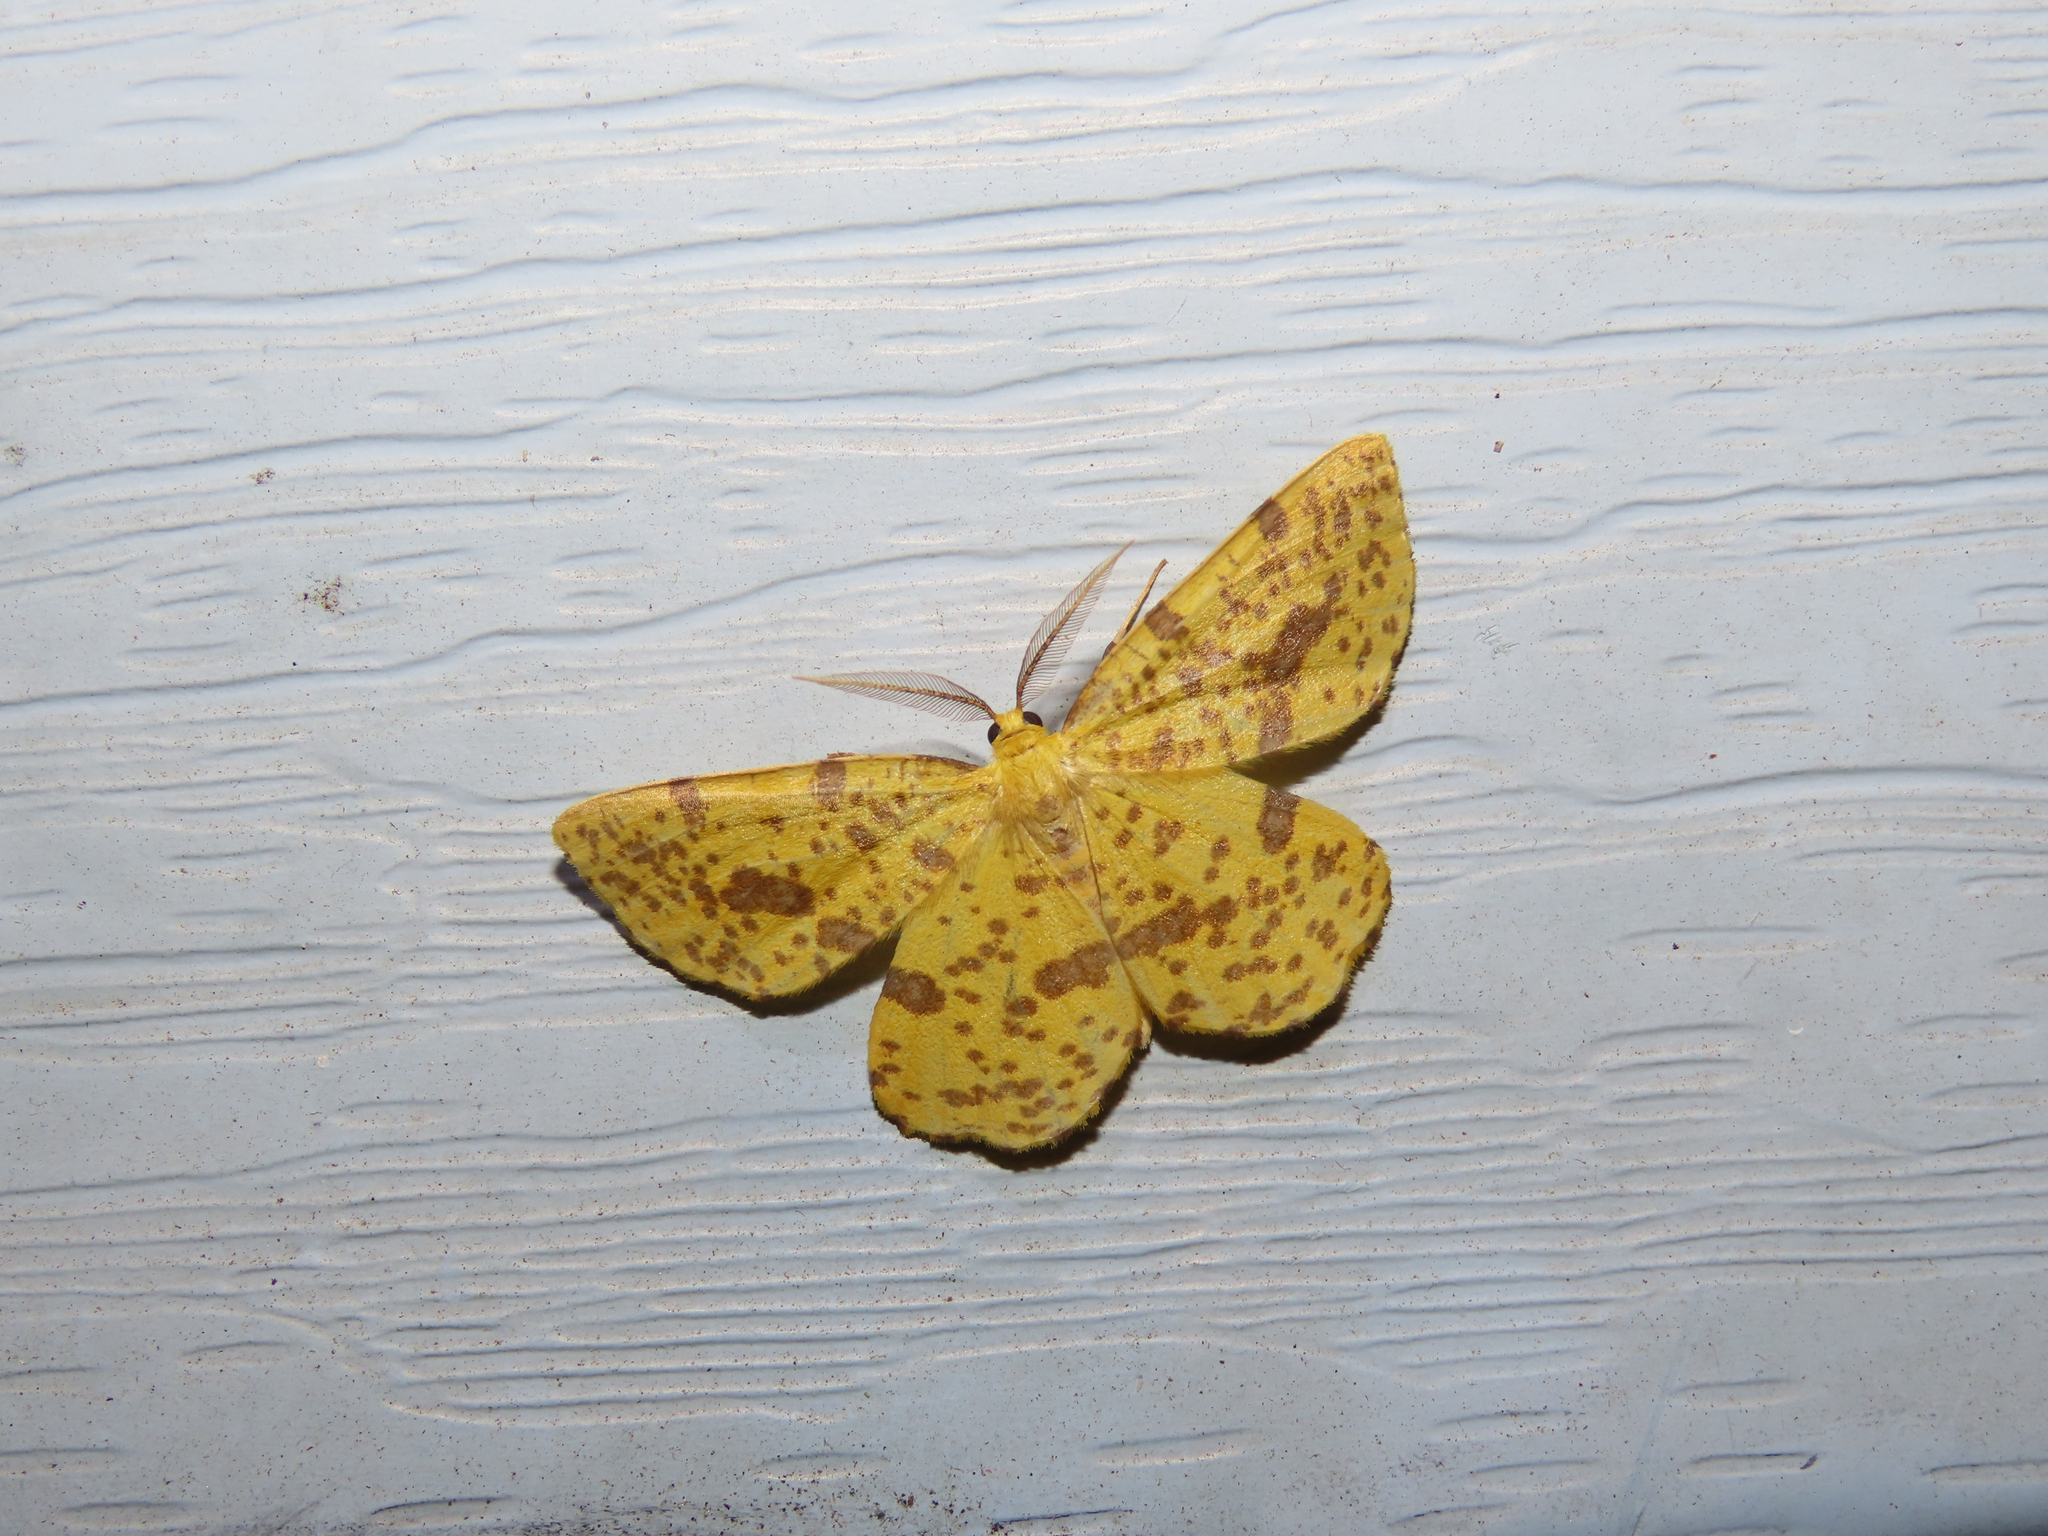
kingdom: Animalia
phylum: Arthropoda
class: Insecta
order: Lepidoptera
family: Geometridae
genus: Xanthotype
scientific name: Xanthotype
